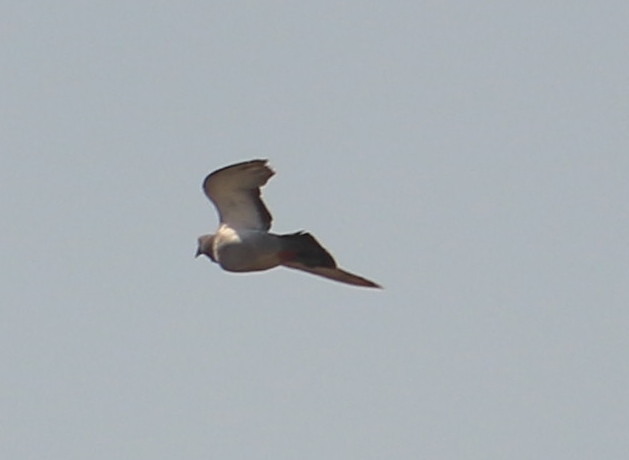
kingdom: Animalia
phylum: Chordata
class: Aves
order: Columbiformes
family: Columbidae
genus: Columba
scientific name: Columba livia
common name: Rock pigeon
